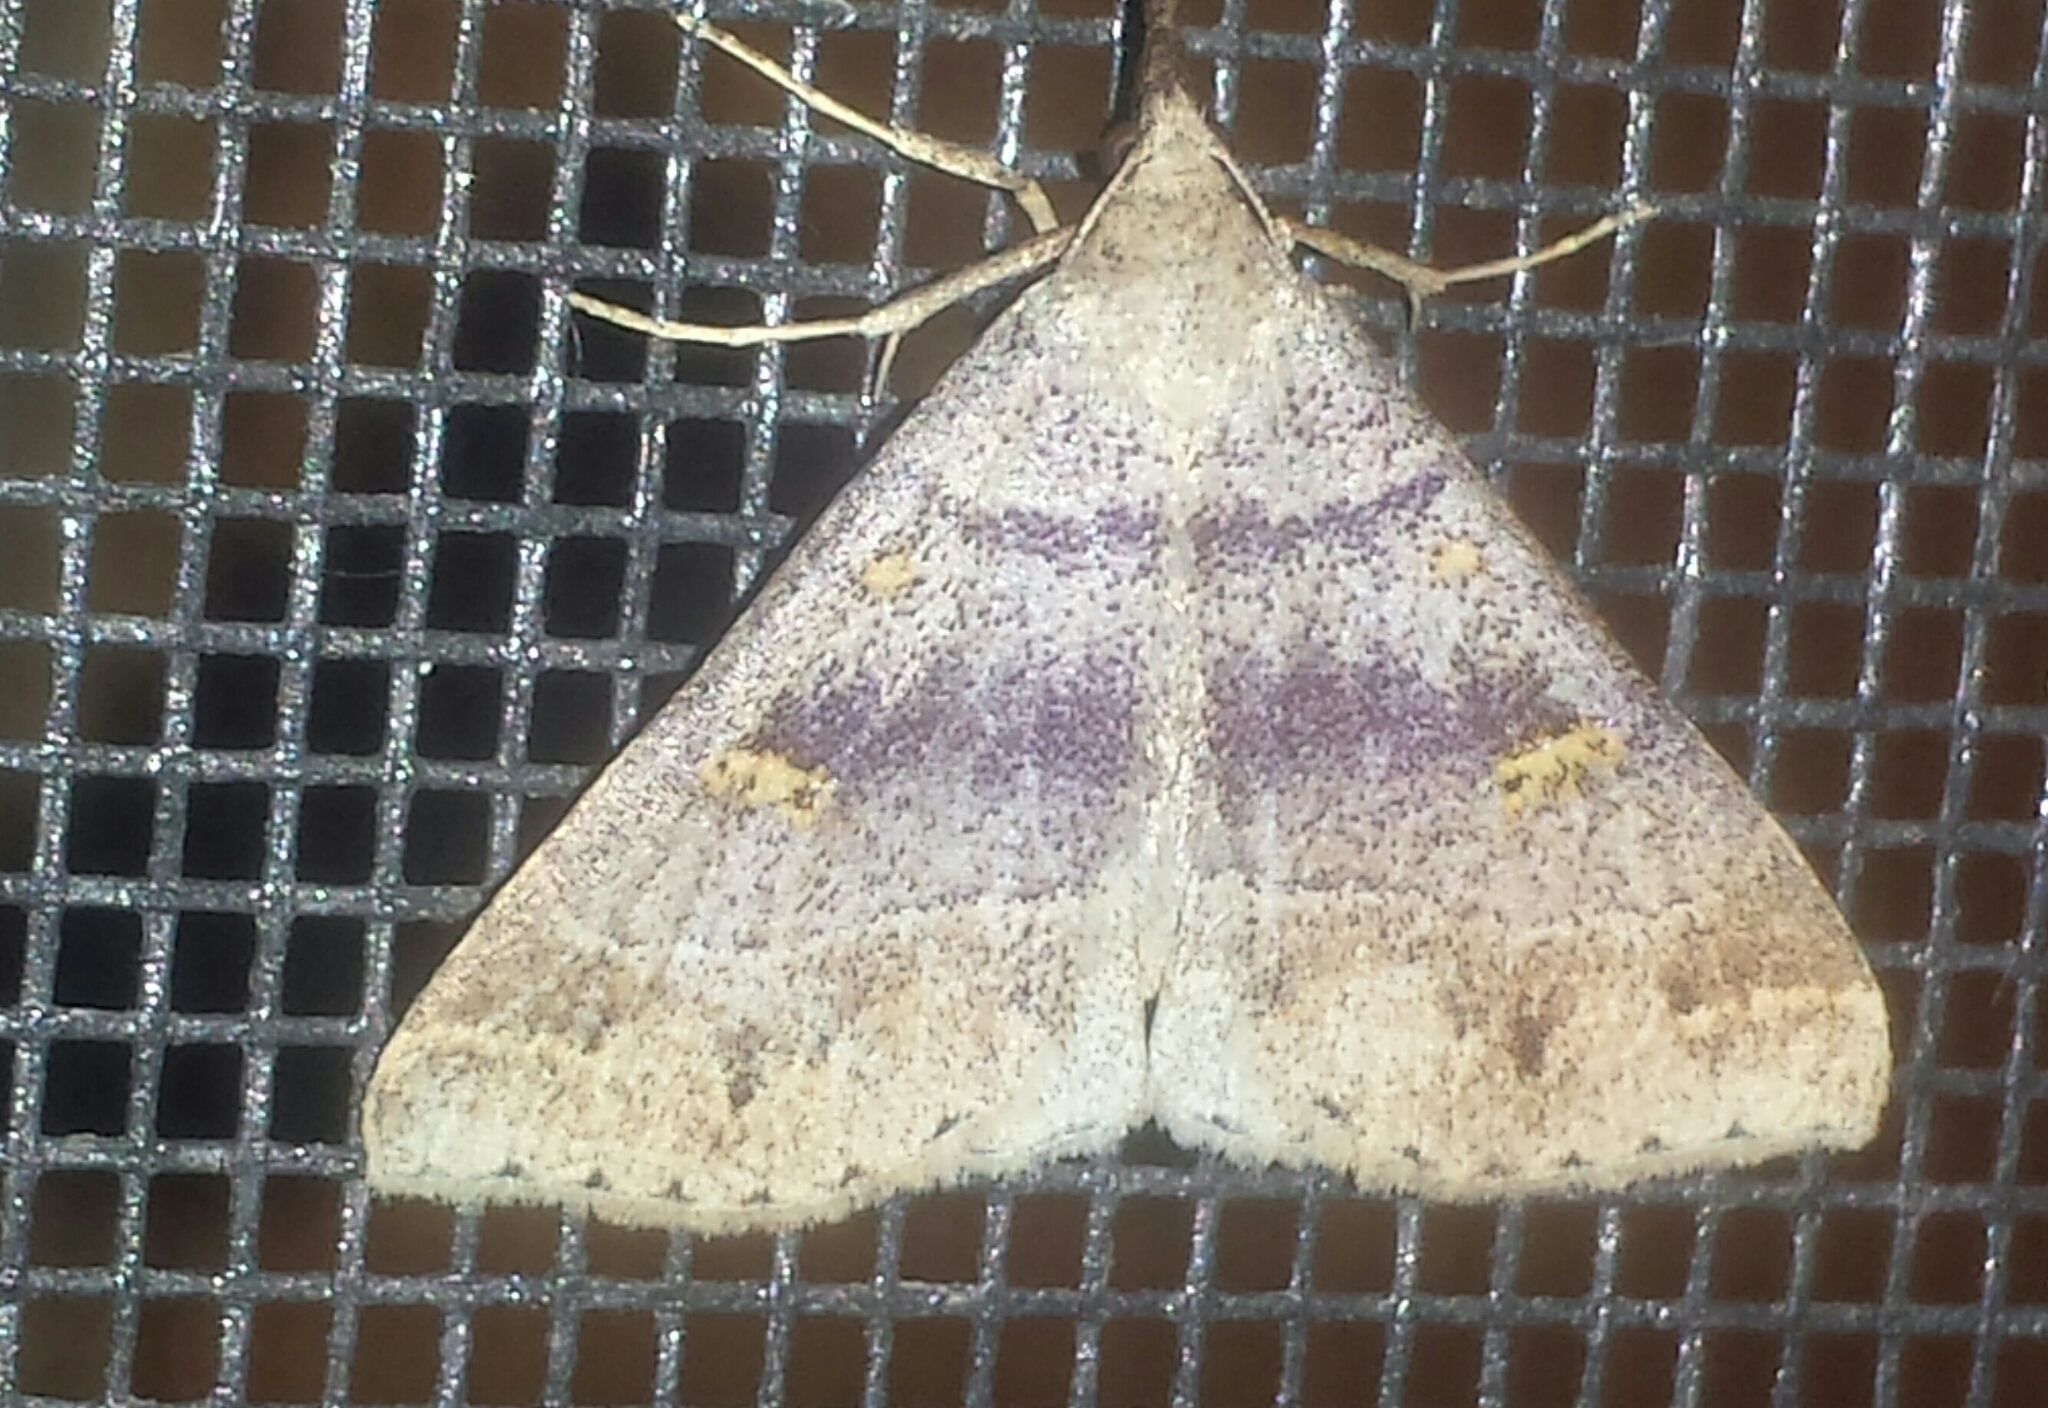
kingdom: Animalia
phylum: Arthropoda
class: Insecta
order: Lepidoptera
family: Erebidae
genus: Renia
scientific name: Renia flavipunctalis
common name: Yellow-spotted renia moth
